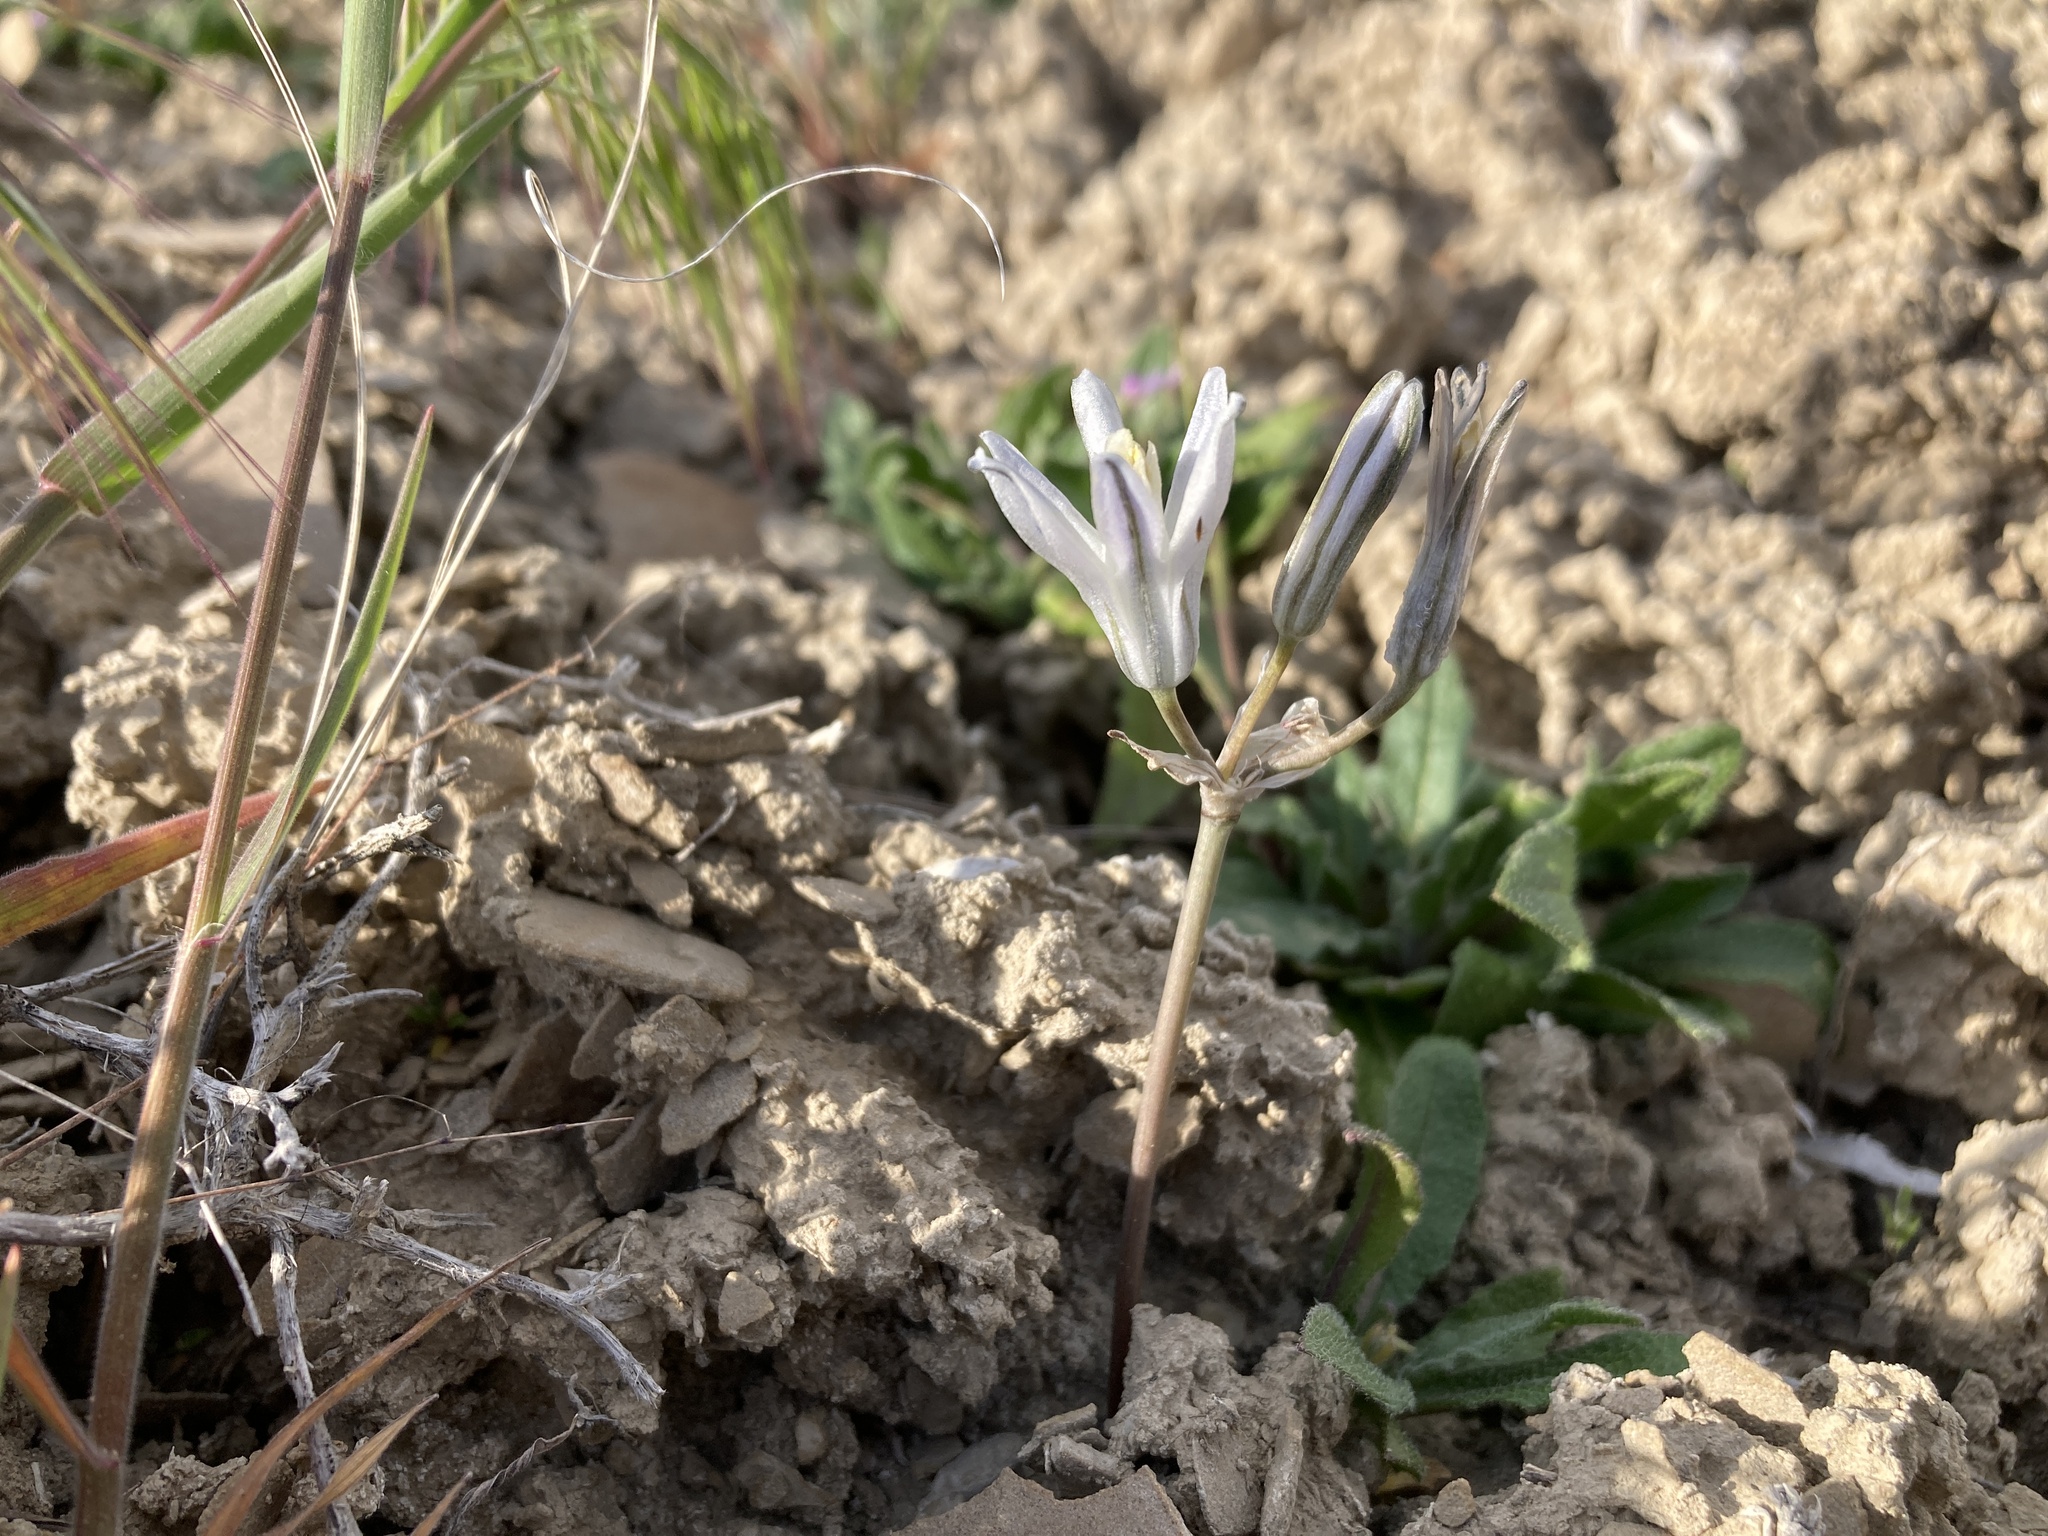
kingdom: Plantae
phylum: Tracheophyta
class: Liliopsida
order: Asparagales
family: Asparagaceae
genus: Androstephium
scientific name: Androstephium breviflorum
